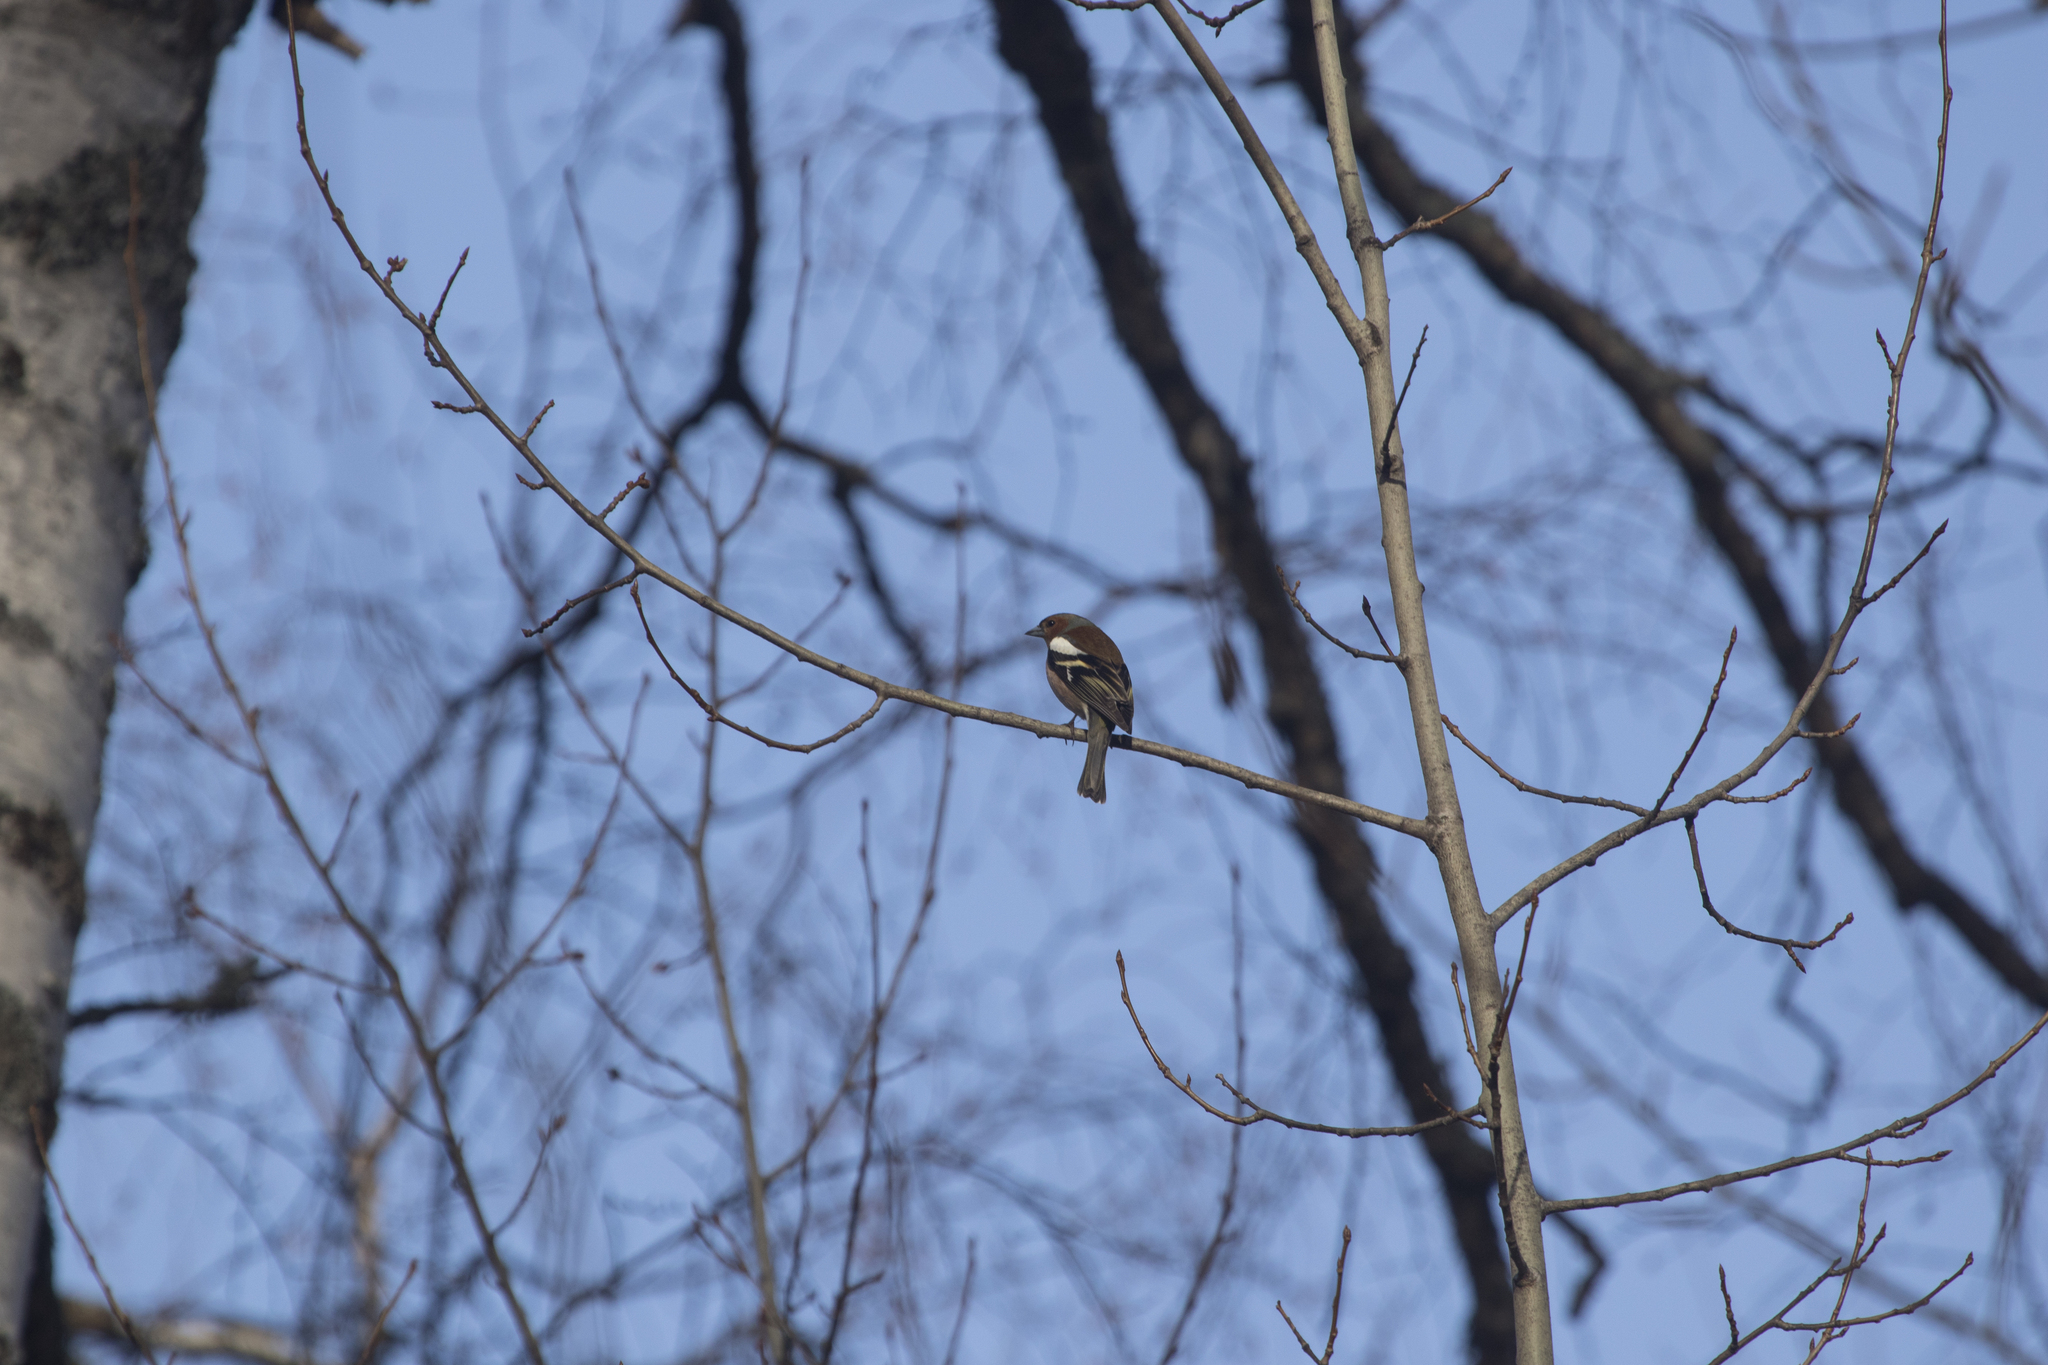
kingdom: Animalia
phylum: Chordata
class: Aves
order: Passeriformes
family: Fringillidae
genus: Fringilla
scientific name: Fringilla coelebs
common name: Common chaffinch
